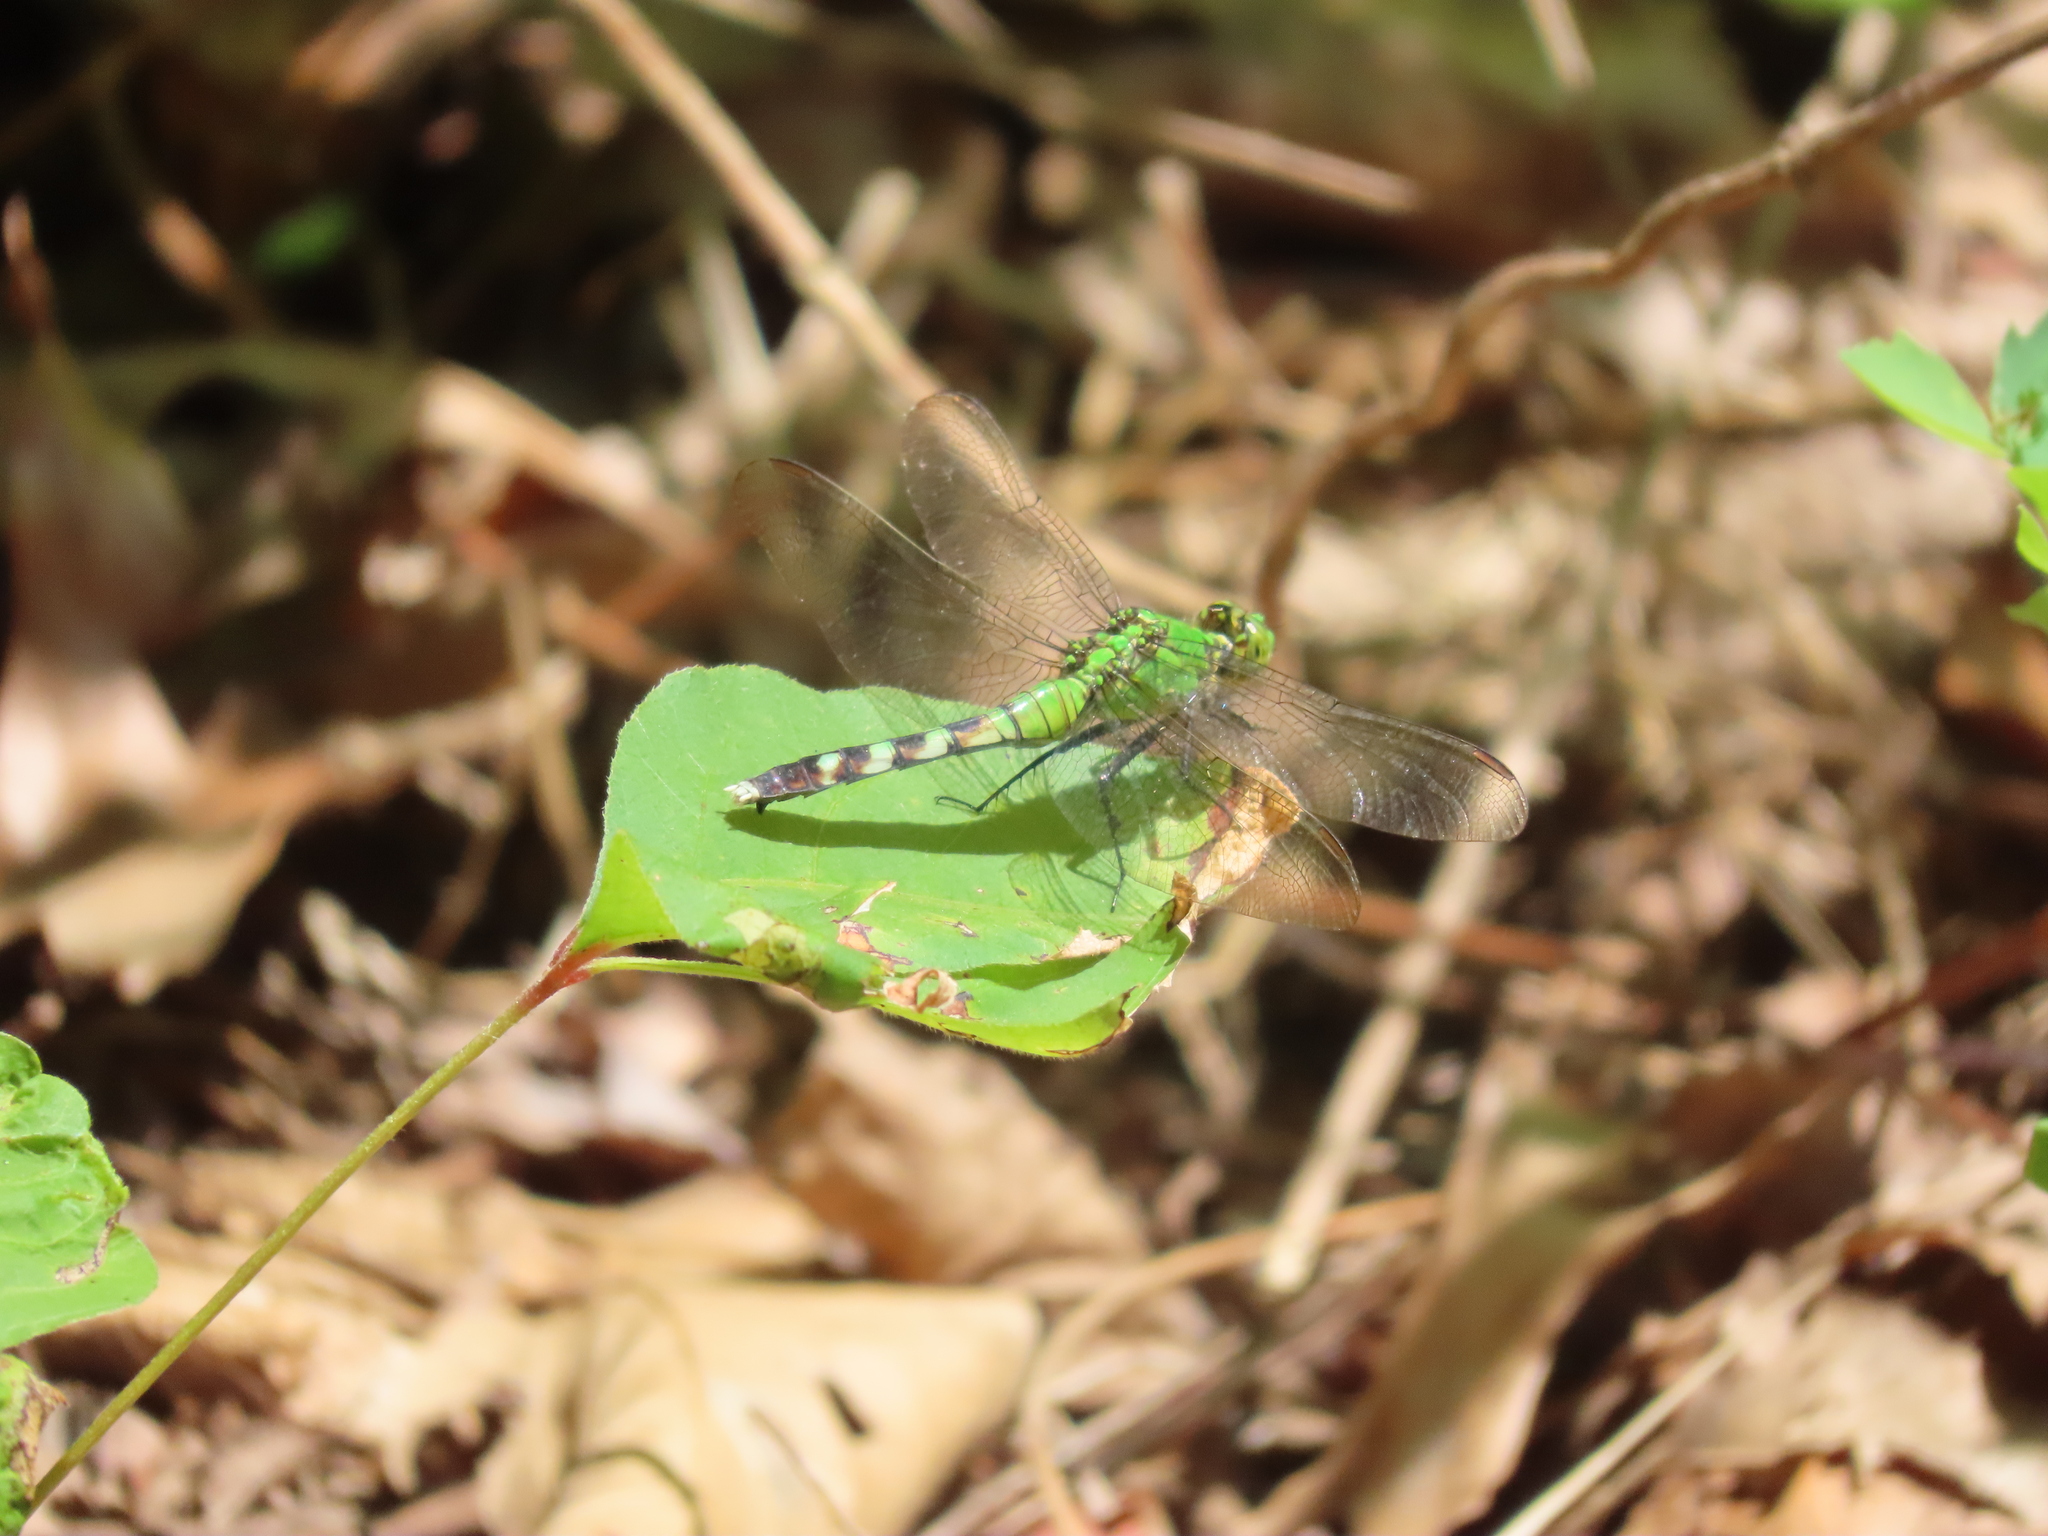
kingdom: Animalia
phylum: Arthropoda
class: Insecta
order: Odonata
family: Libellulidae
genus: Erythemis
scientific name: Erythemis simplicicollis
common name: Eastern pondhawk
